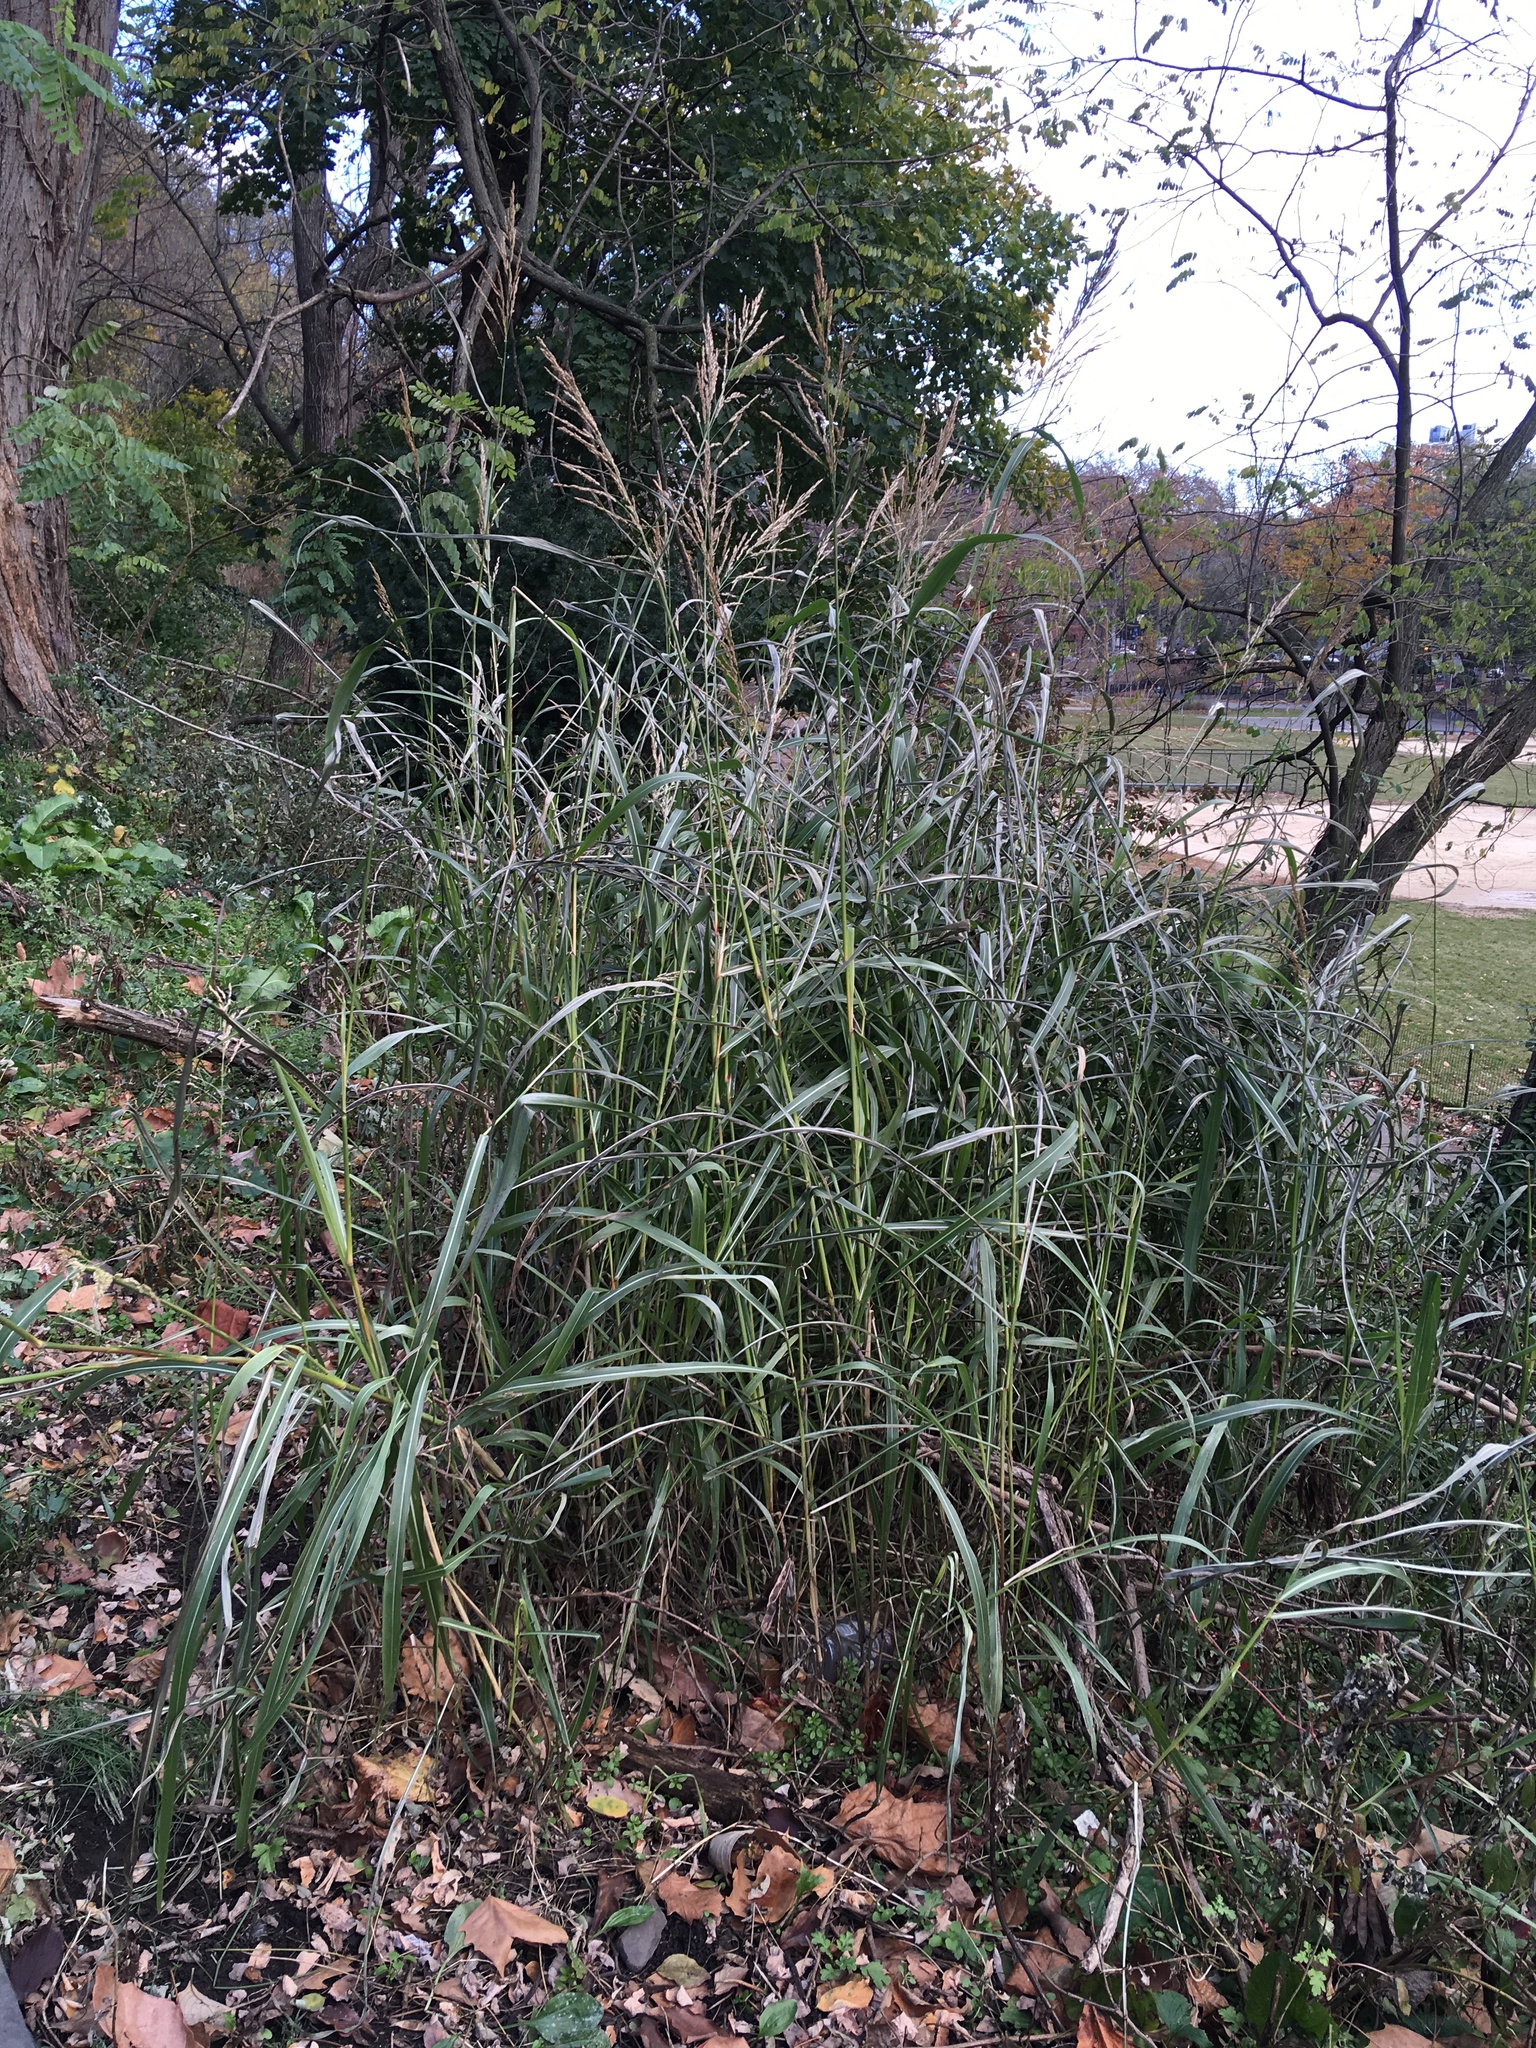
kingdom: Plantae
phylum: Tracheophyta
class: Liliopsida
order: Poales
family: Poaceae
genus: Sorghum
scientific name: Sorghum halepense
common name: Johnson-grass
